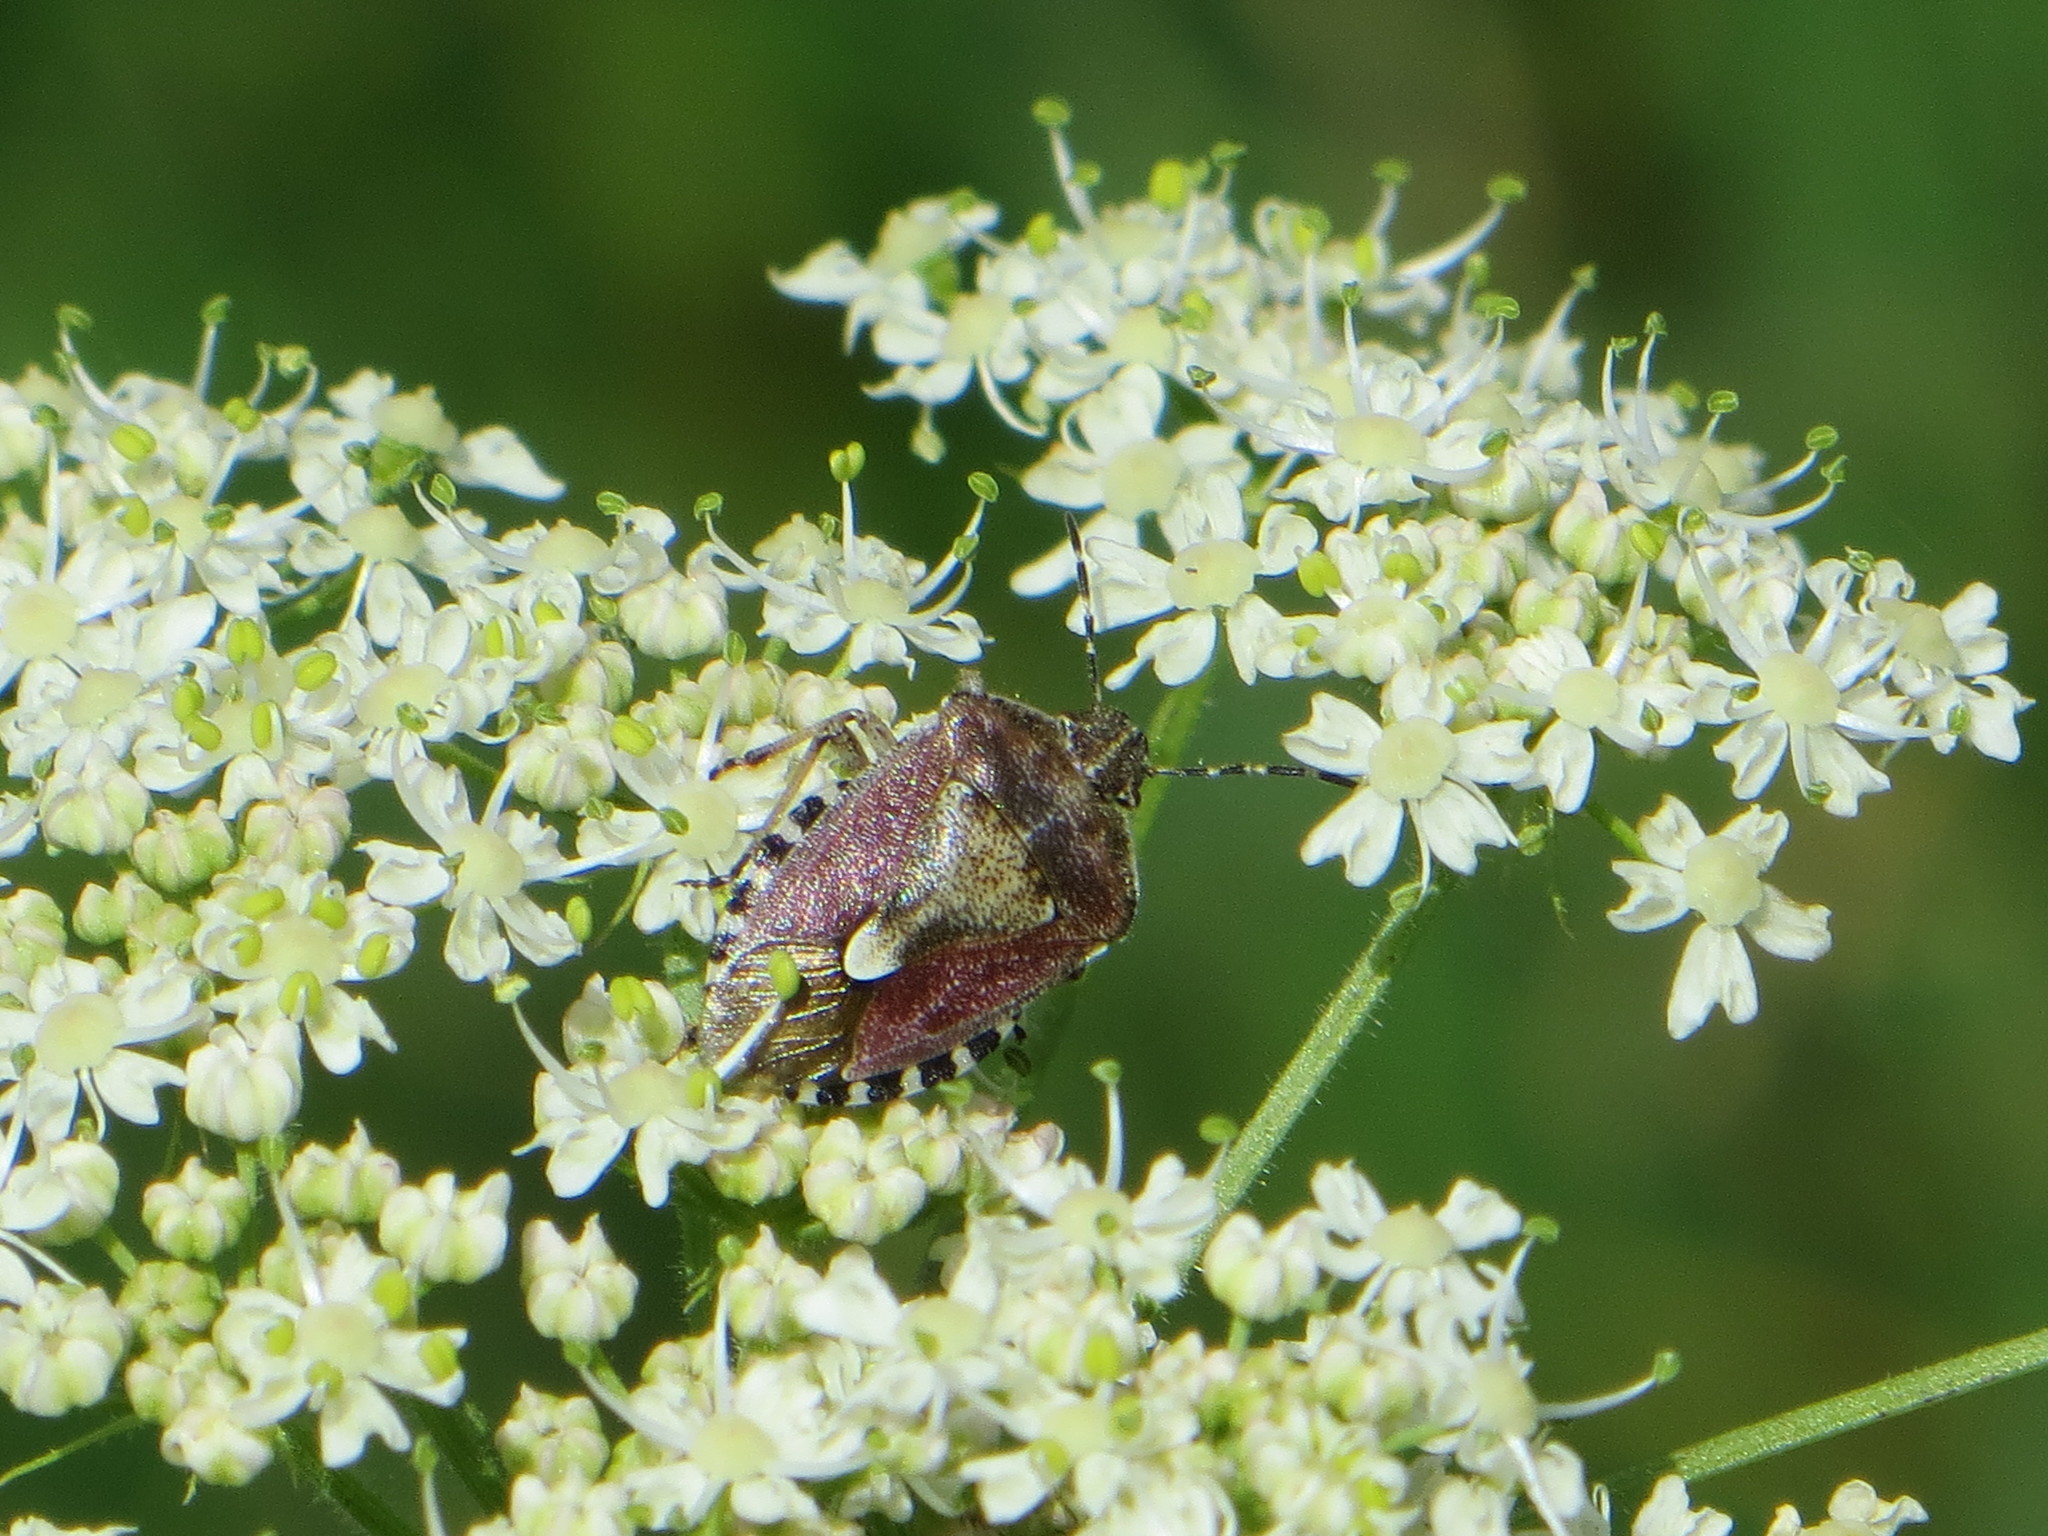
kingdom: Animalia
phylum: Arthropoda
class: Insecta
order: Hemiptera
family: Pentatomidae
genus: Dolycoris
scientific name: Dolycoris baccarum
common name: Sloe bug
